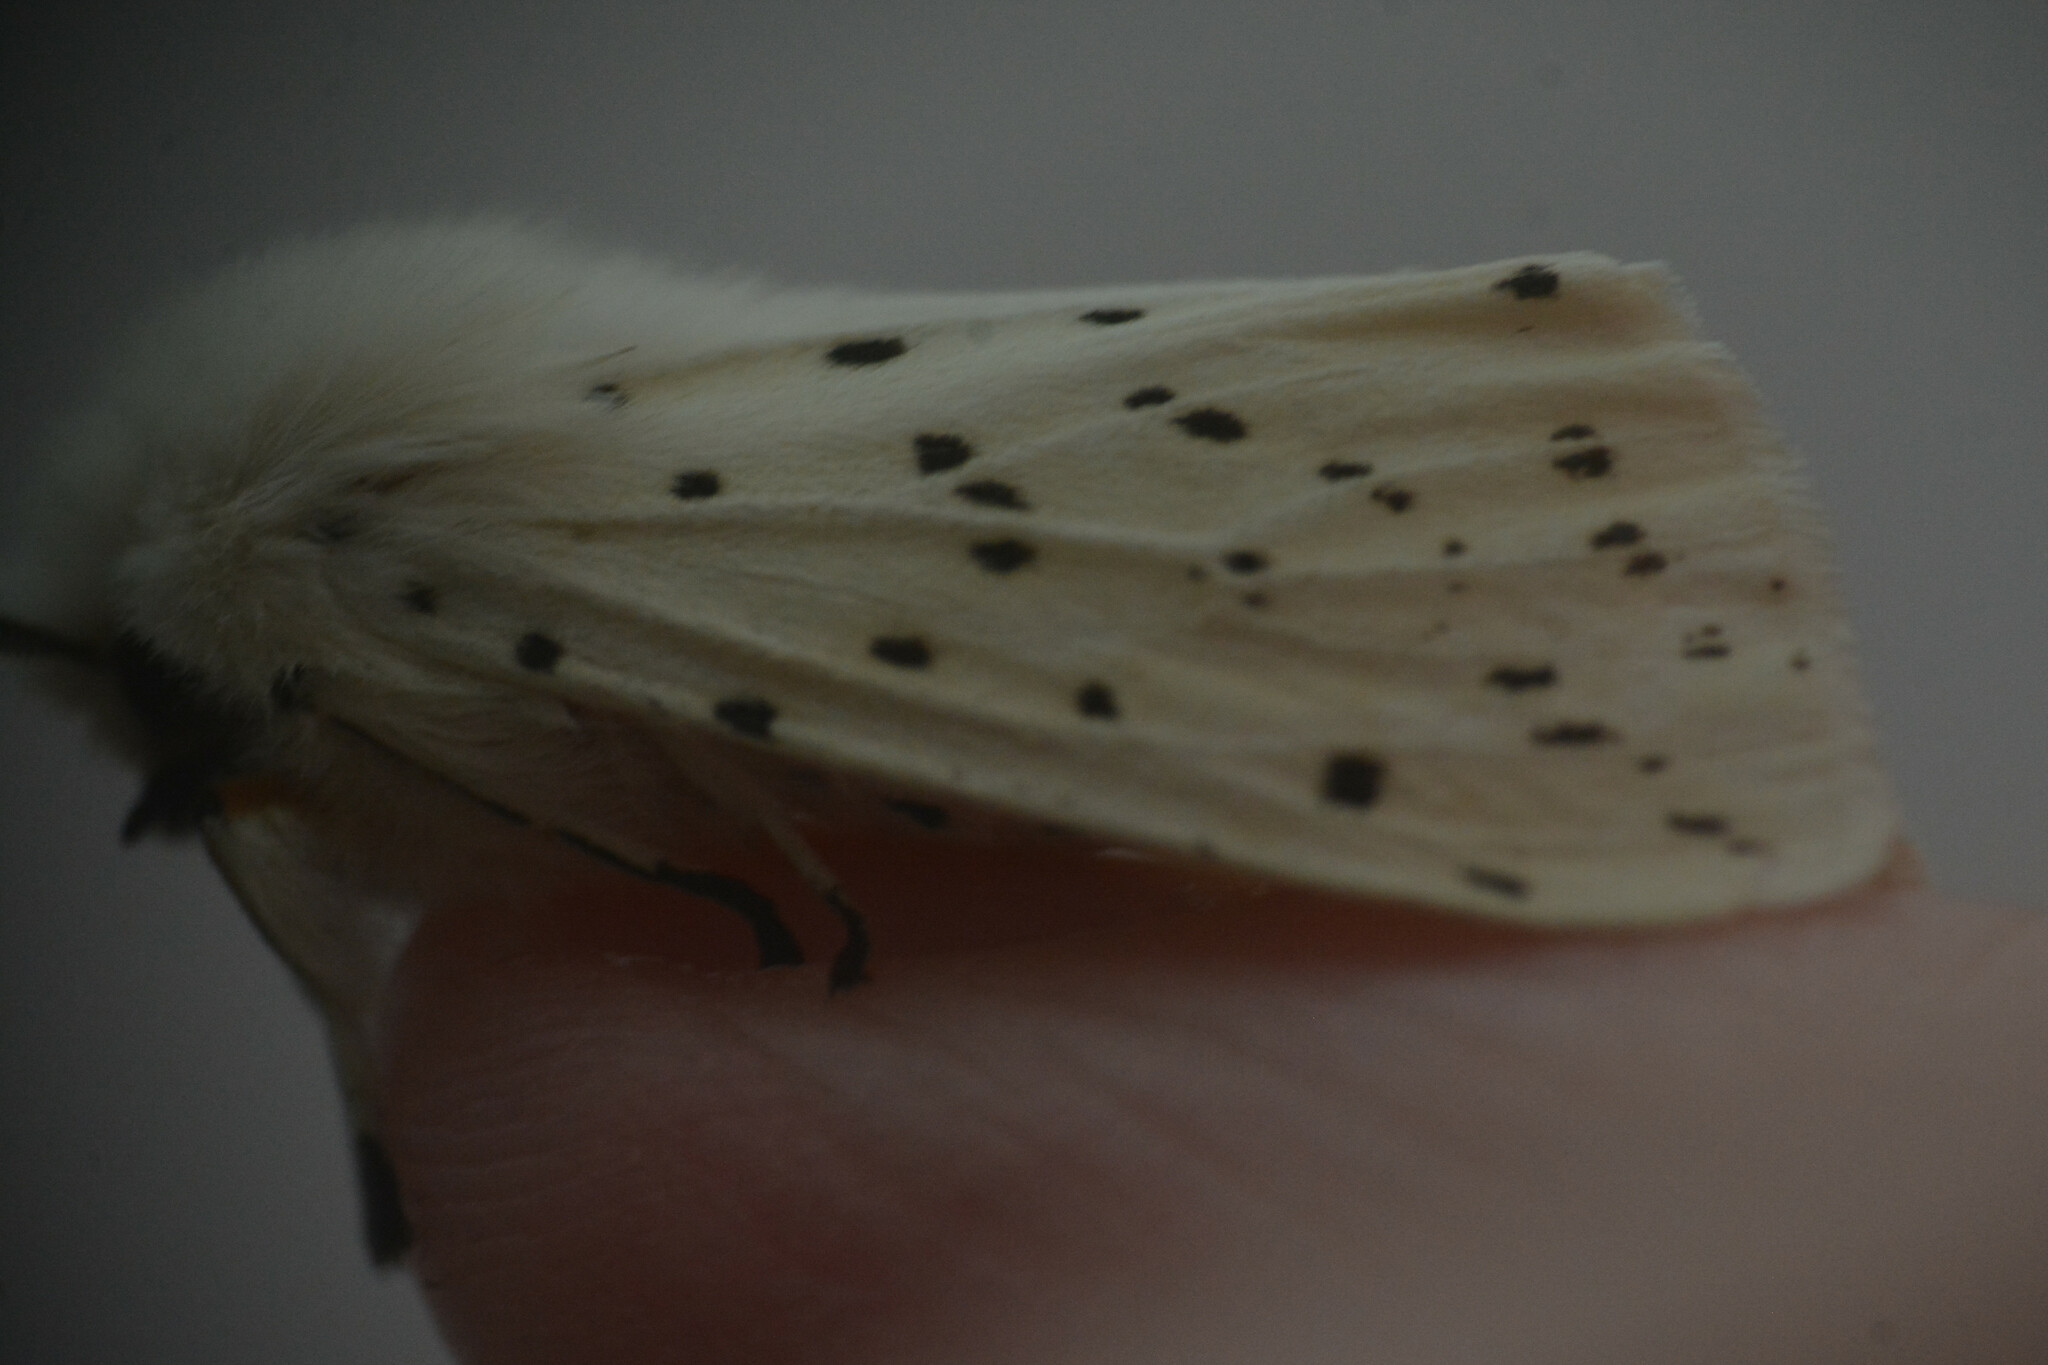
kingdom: Animalia
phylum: Arthropoda
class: Insecta
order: Lepidoptera
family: Erebidae
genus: Spilosoma
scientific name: Spilosoma lubricipeda
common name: White ermine
